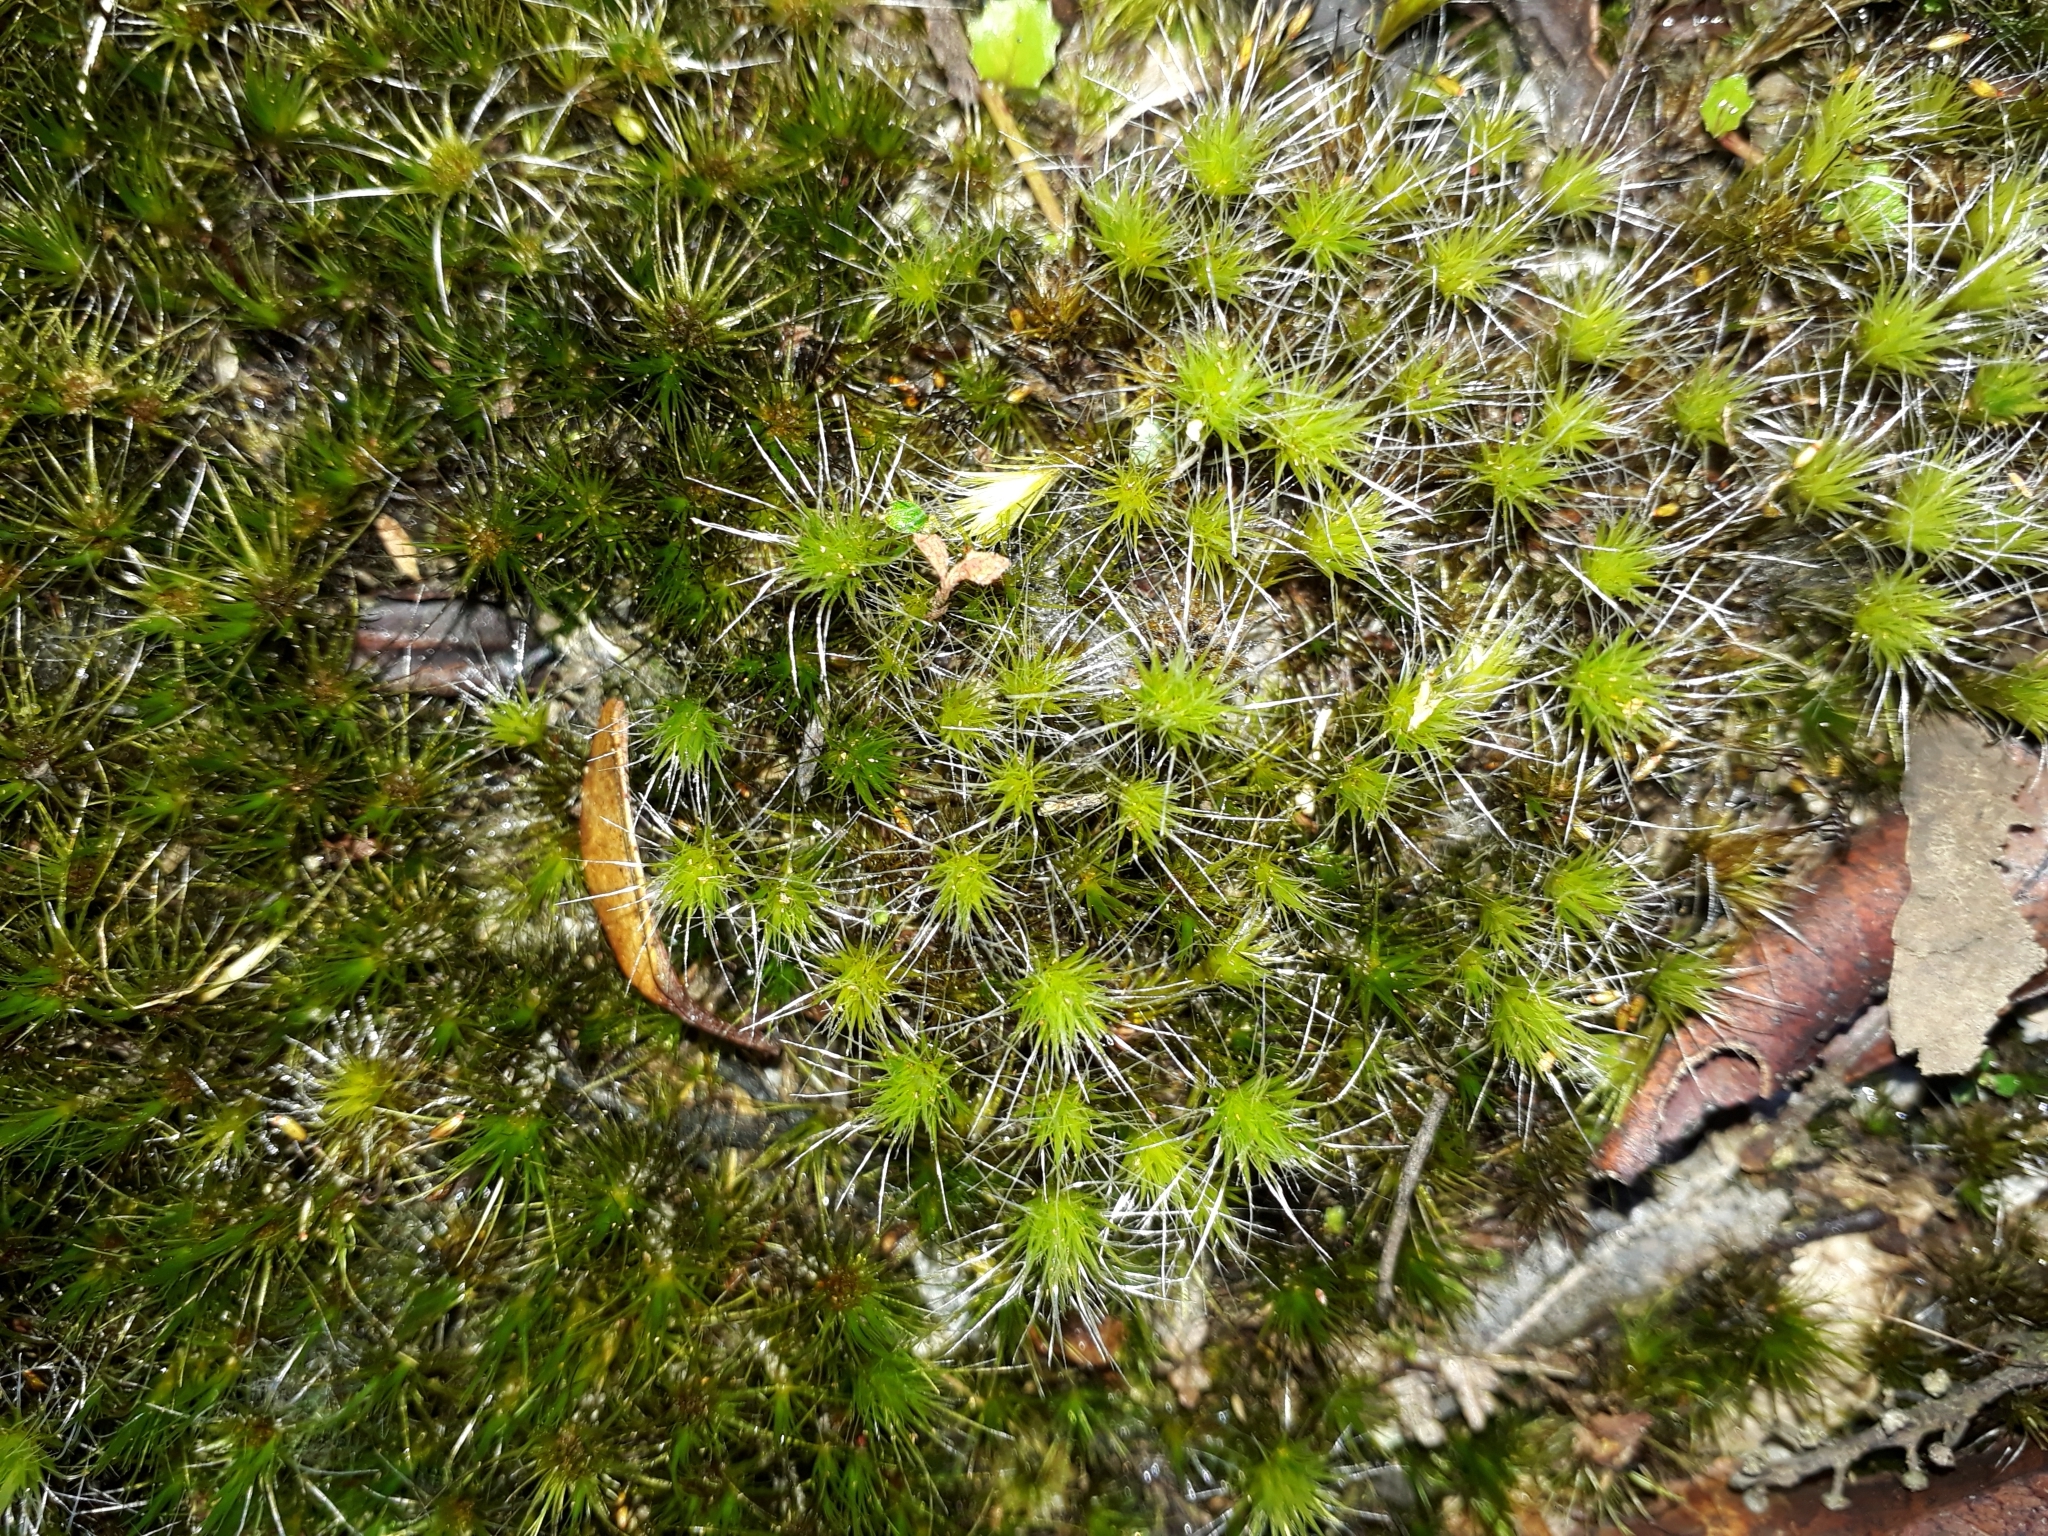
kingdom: Plantae
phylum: Bryophyta
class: Bryopsida
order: Dicranales
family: Leucobryaceae
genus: Campylopus
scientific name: Campylopus introflexus
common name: Heath star moss
